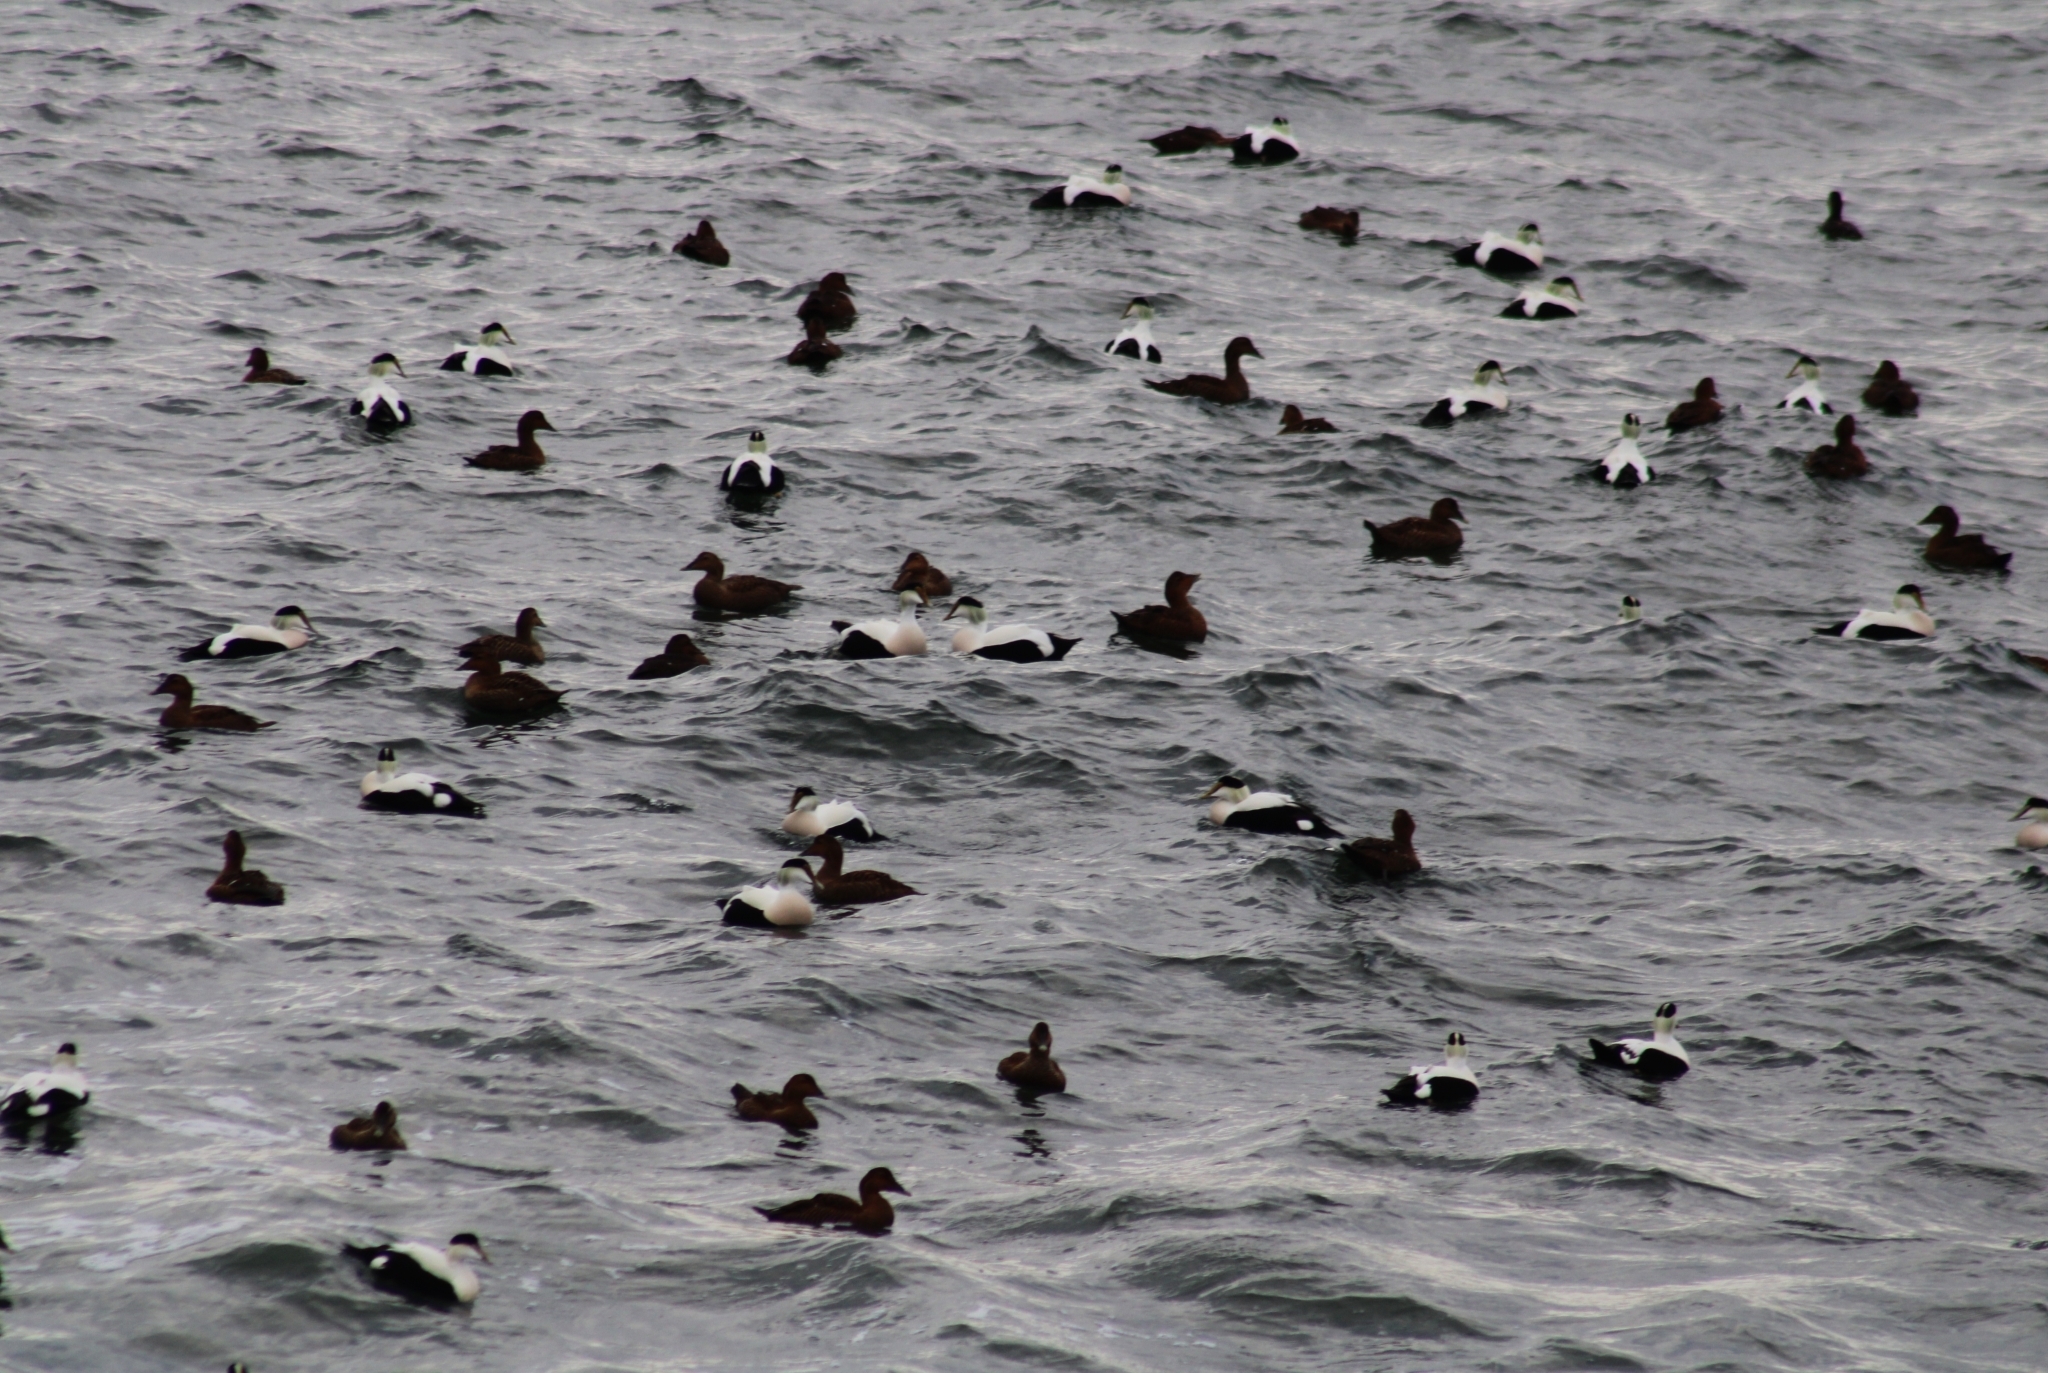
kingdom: Animalia
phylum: Chordata
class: Aves
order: Anseriformes
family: Anatidae
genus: Somateria
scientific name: Somateria mollissima
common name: Common eider
